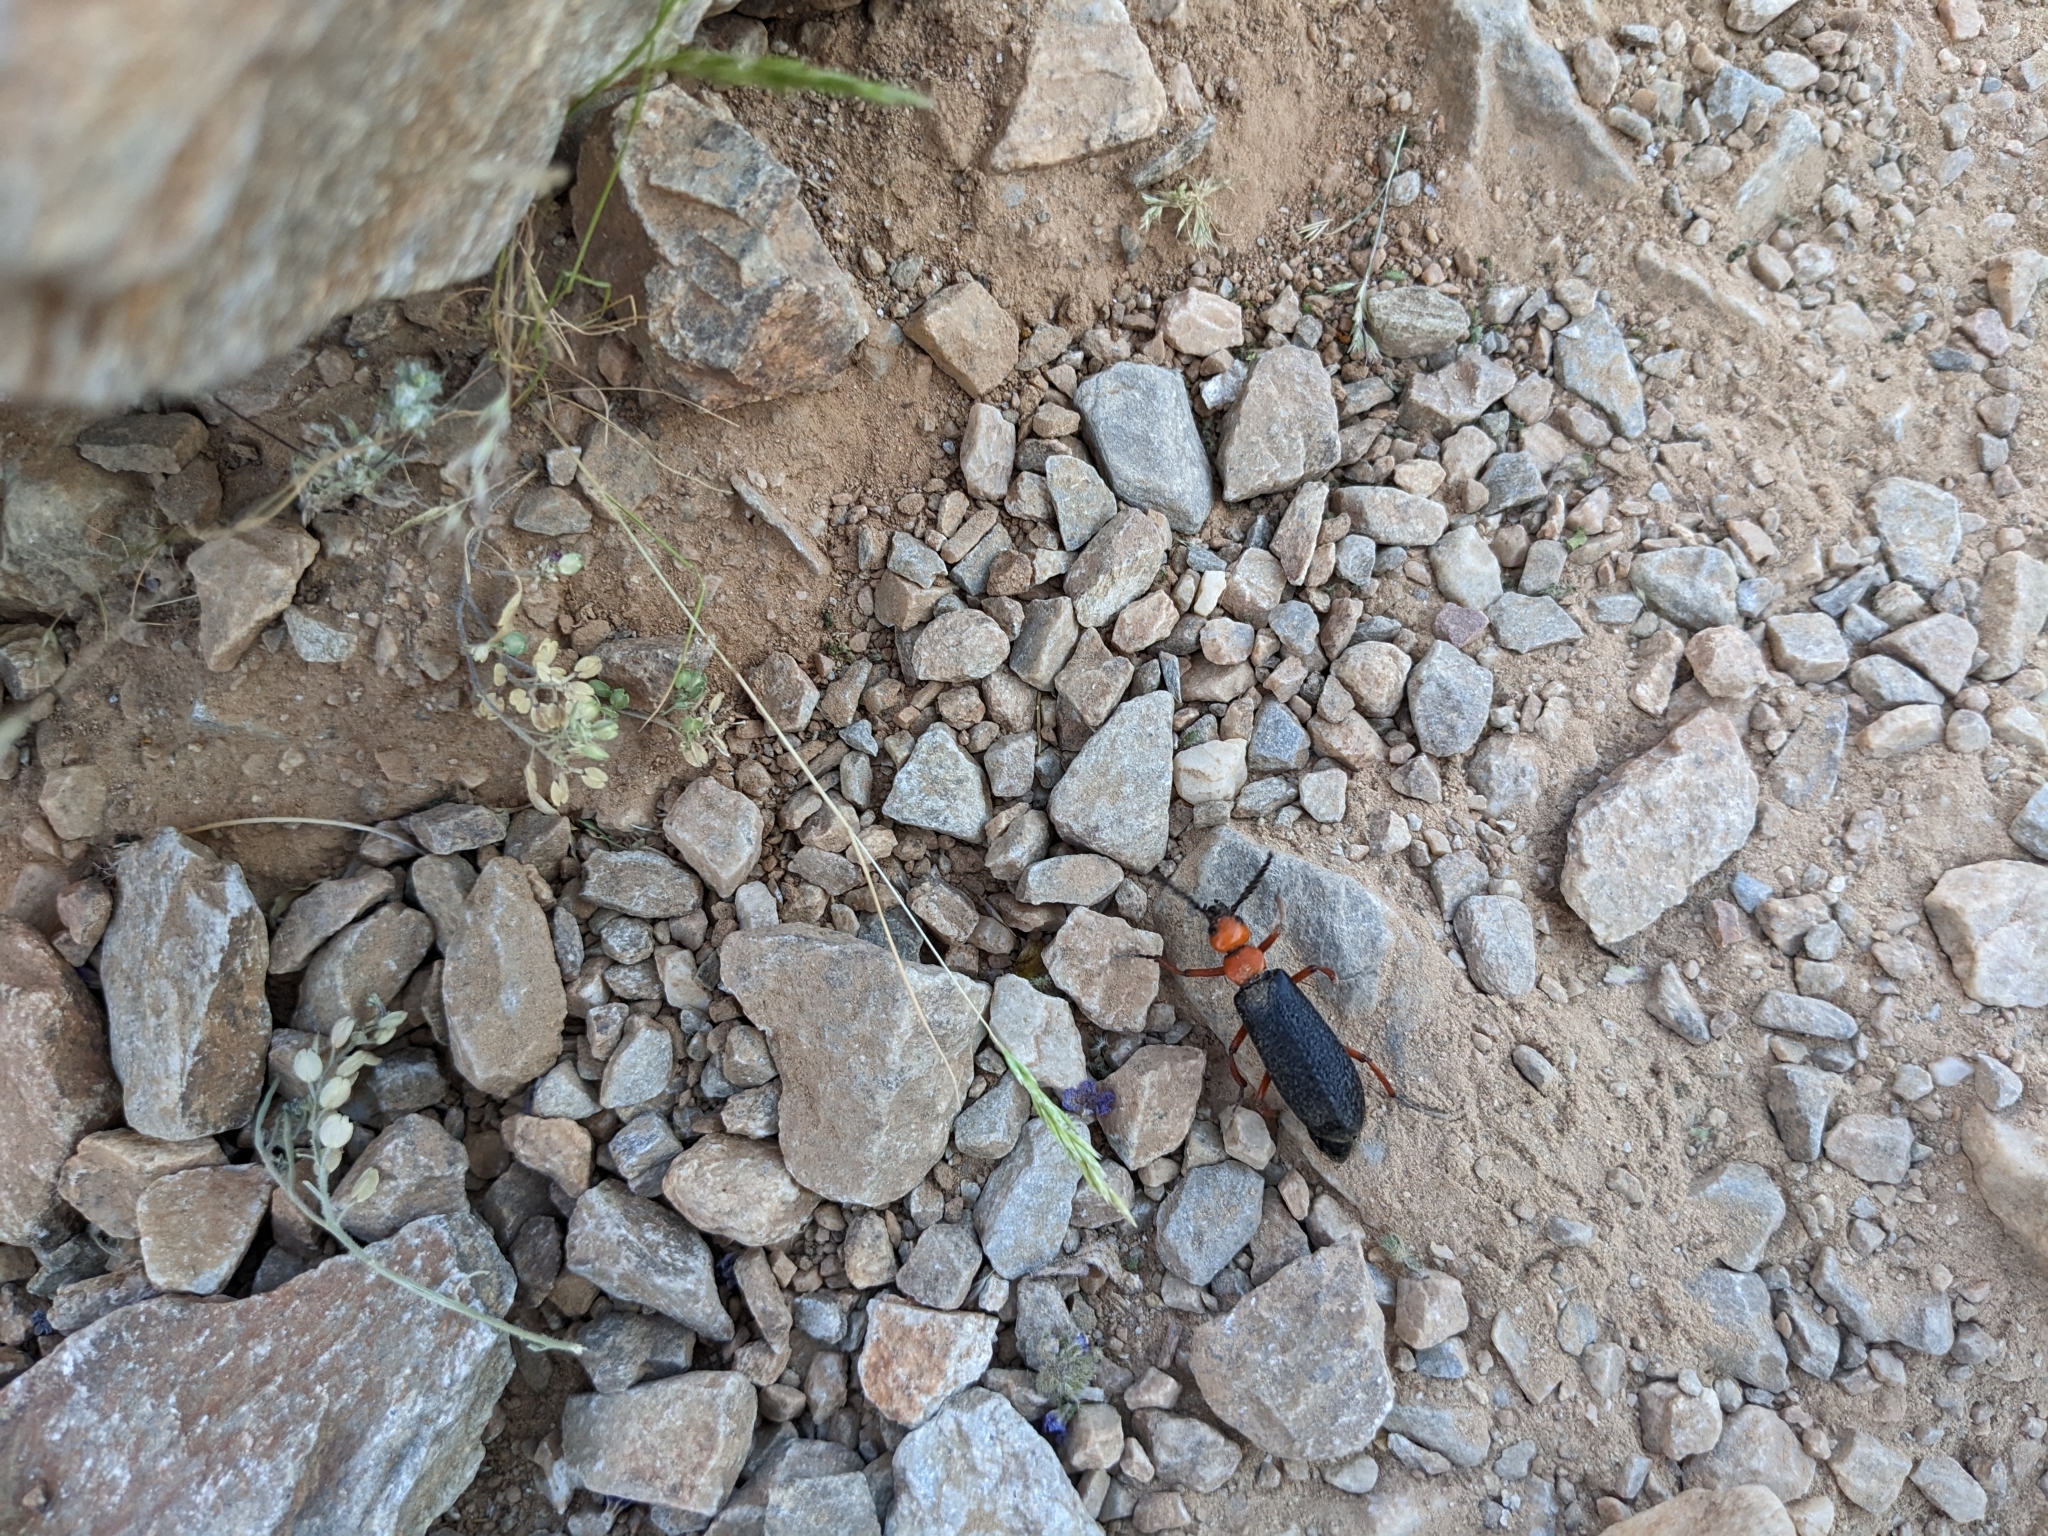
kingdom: Animalia
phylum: Arthropoda
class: Insecta
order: Coleoptera
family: Meloidae
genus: Lytta
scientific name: Lytta magister
